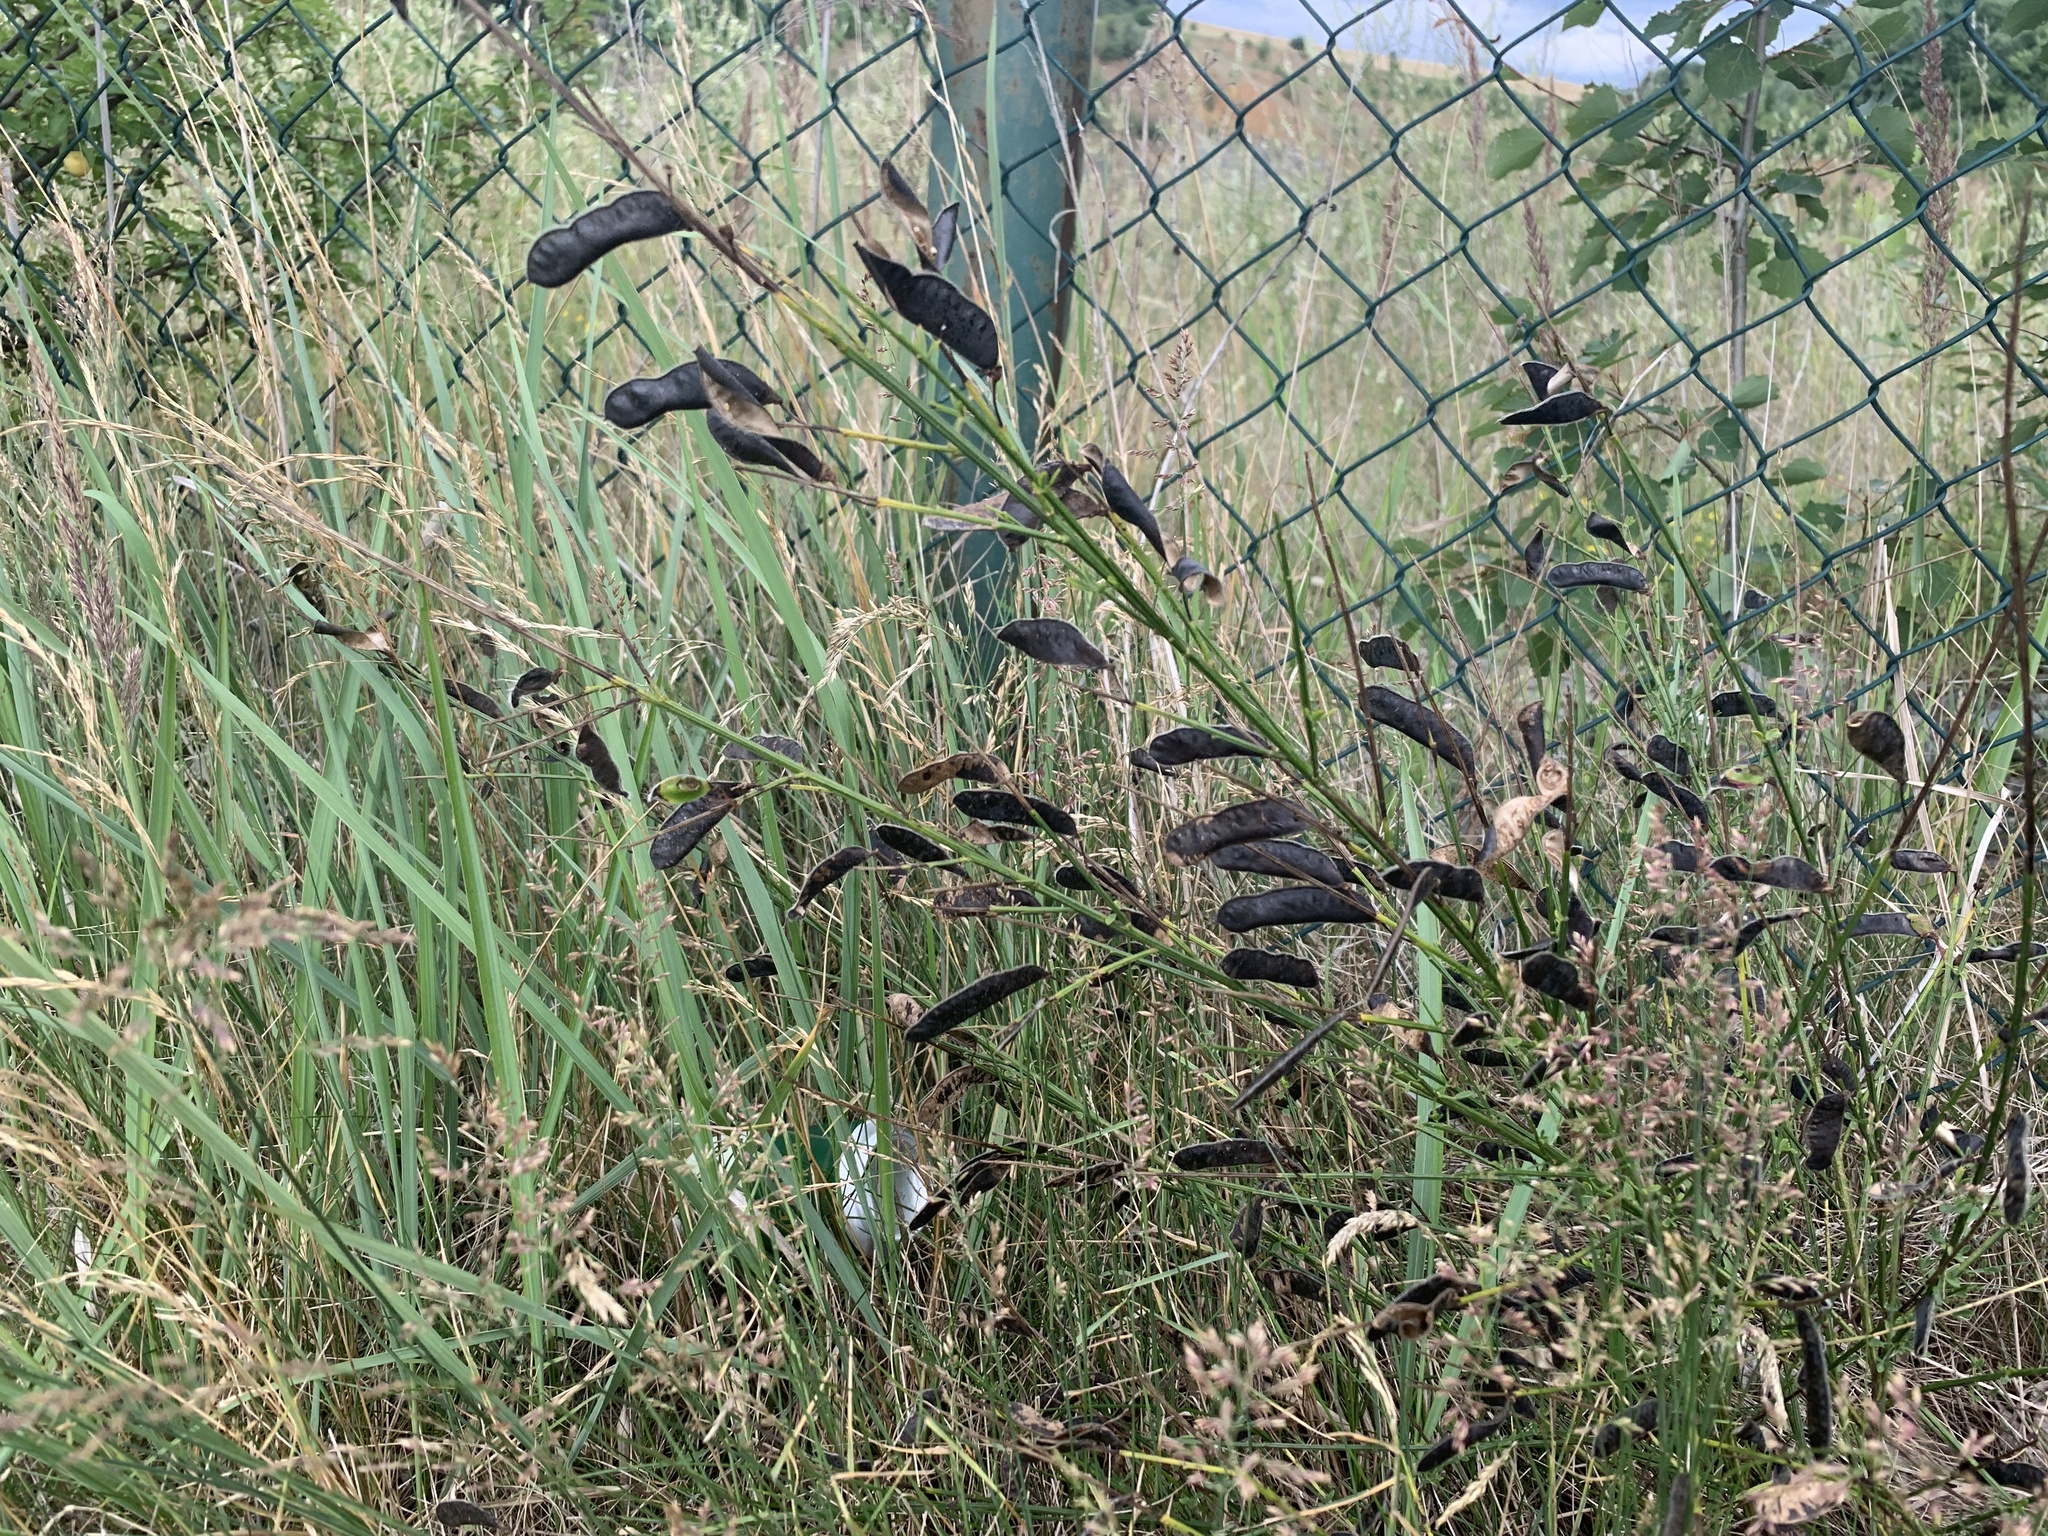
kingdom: Plantae
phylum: Tracheophyta
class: Magnoliopsida
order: Fabales
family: Fabaceae
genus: Cytisus
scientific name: Cytisus scoparius
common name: Scotch broom
